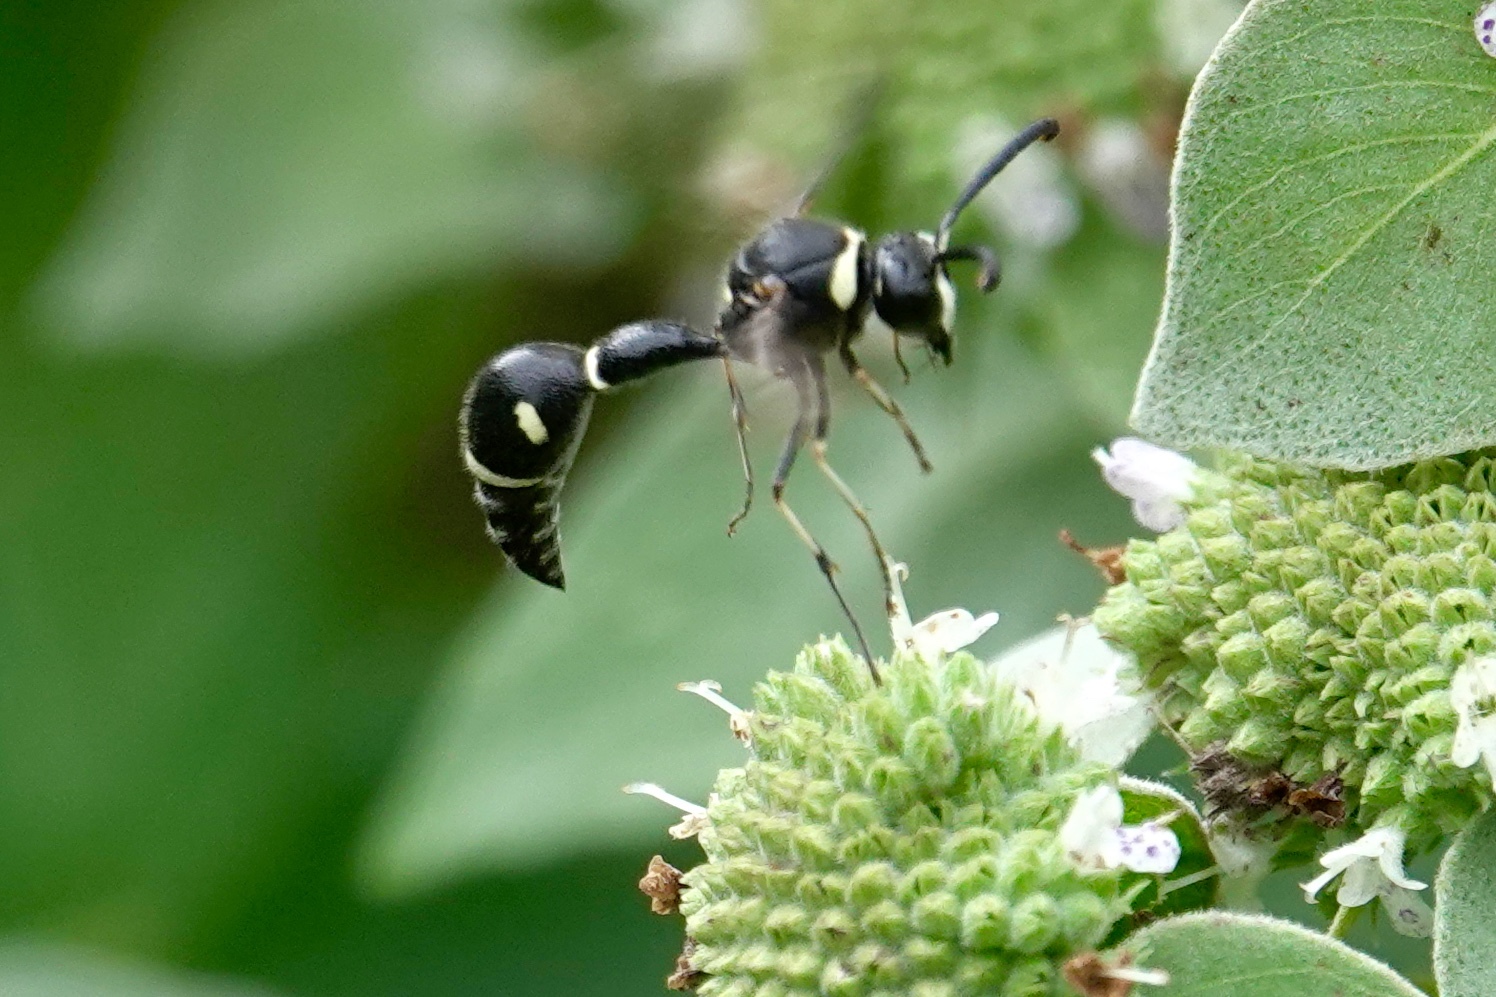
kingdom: Animalia
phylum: Arthropoda
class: Insecta
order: Hymenoptera
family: Vespidae
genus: Eumenes
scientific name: Eumenes fraternus
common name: Fraternal potter wasp
